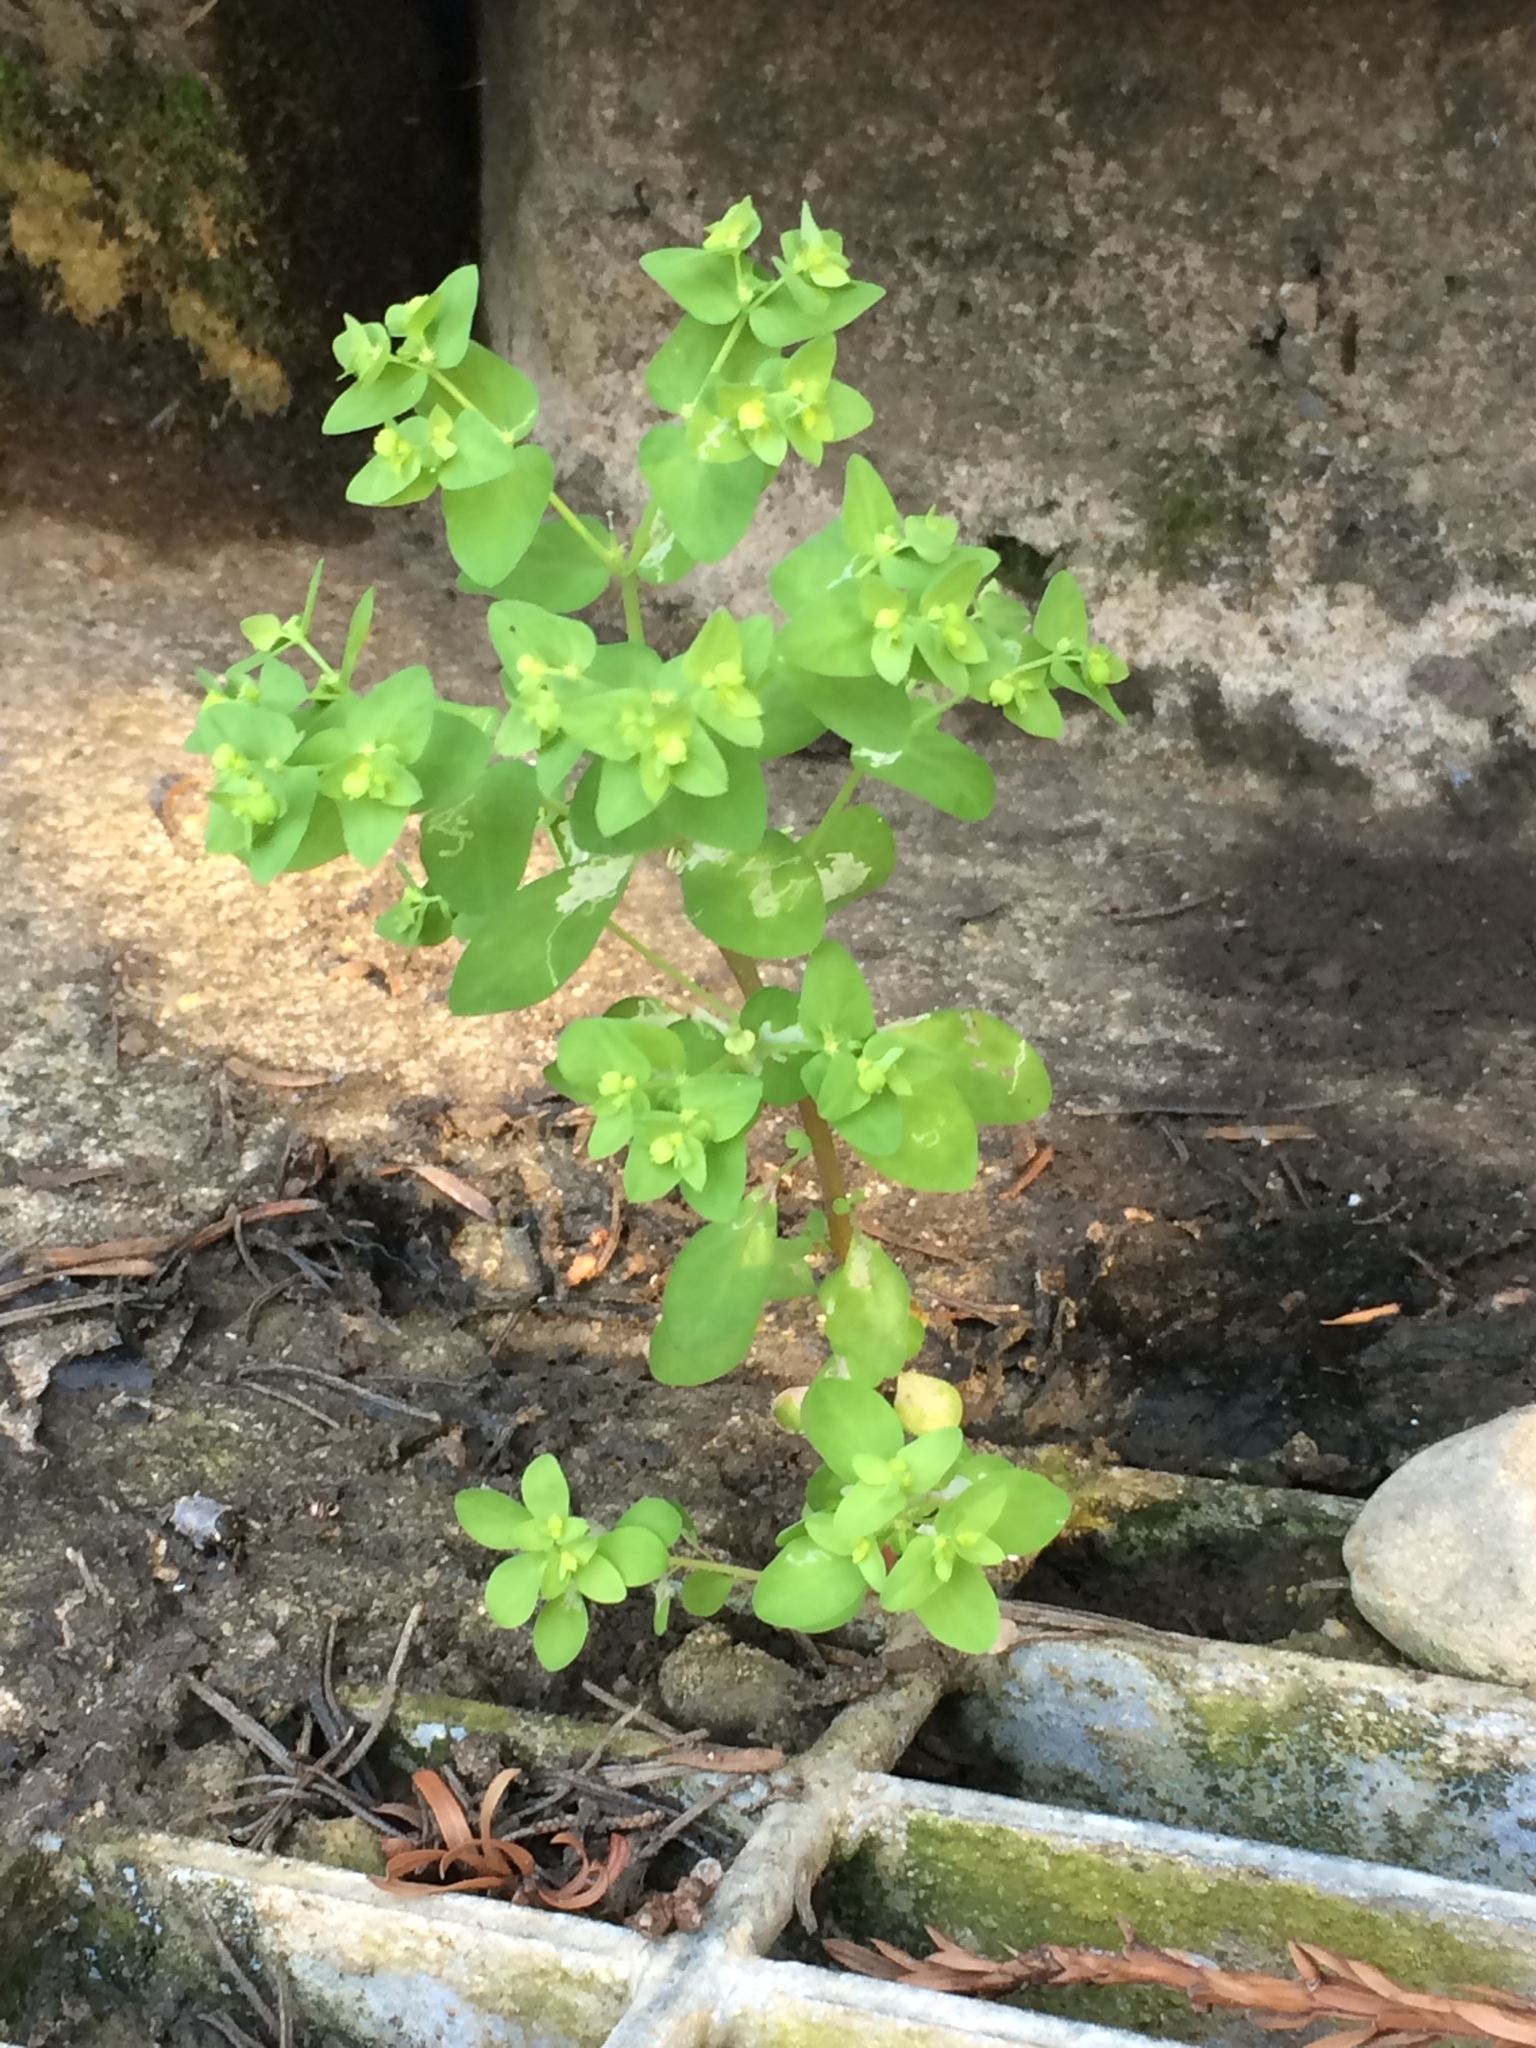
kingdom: Plantae
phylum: Tracheophyta
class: Magnoliopsida
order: Malpighiales
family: Euphorbiaceae
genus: Euphorbia
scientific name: Euphorbia peplus
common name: Petty spurge
